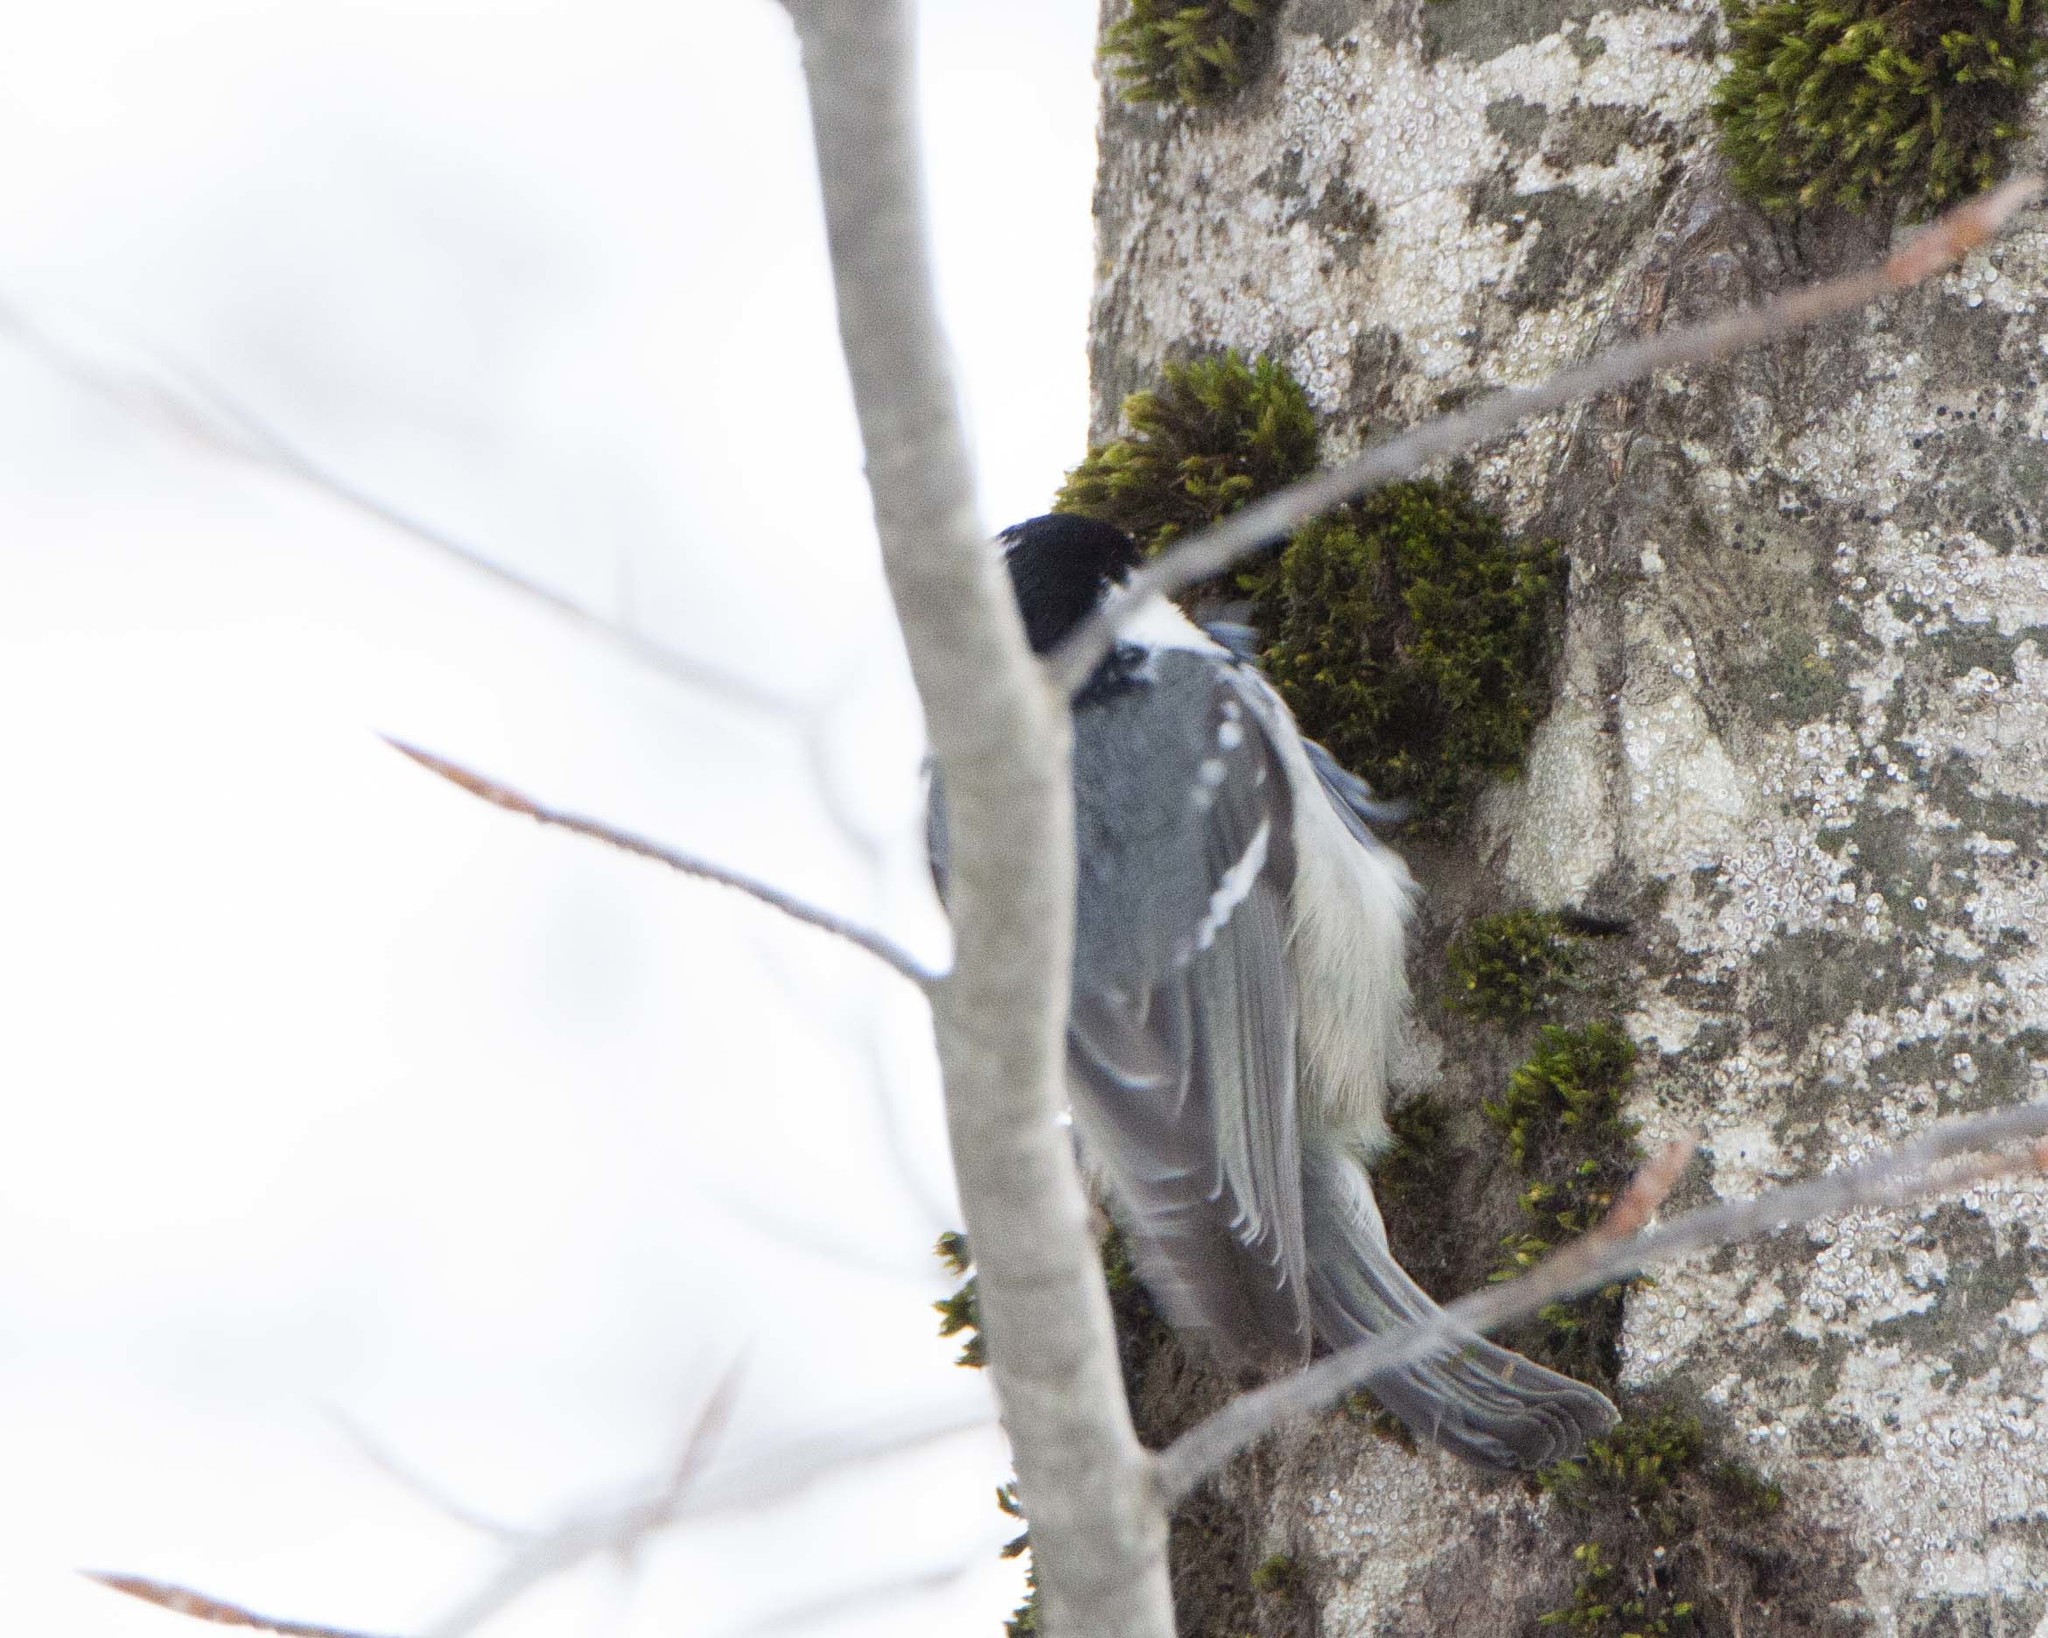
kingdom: Animalia
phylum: Chordata
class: Aves
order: Passeriformes
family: Paridae
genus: Periparus
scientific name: Periparus ater
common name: Coal tit
